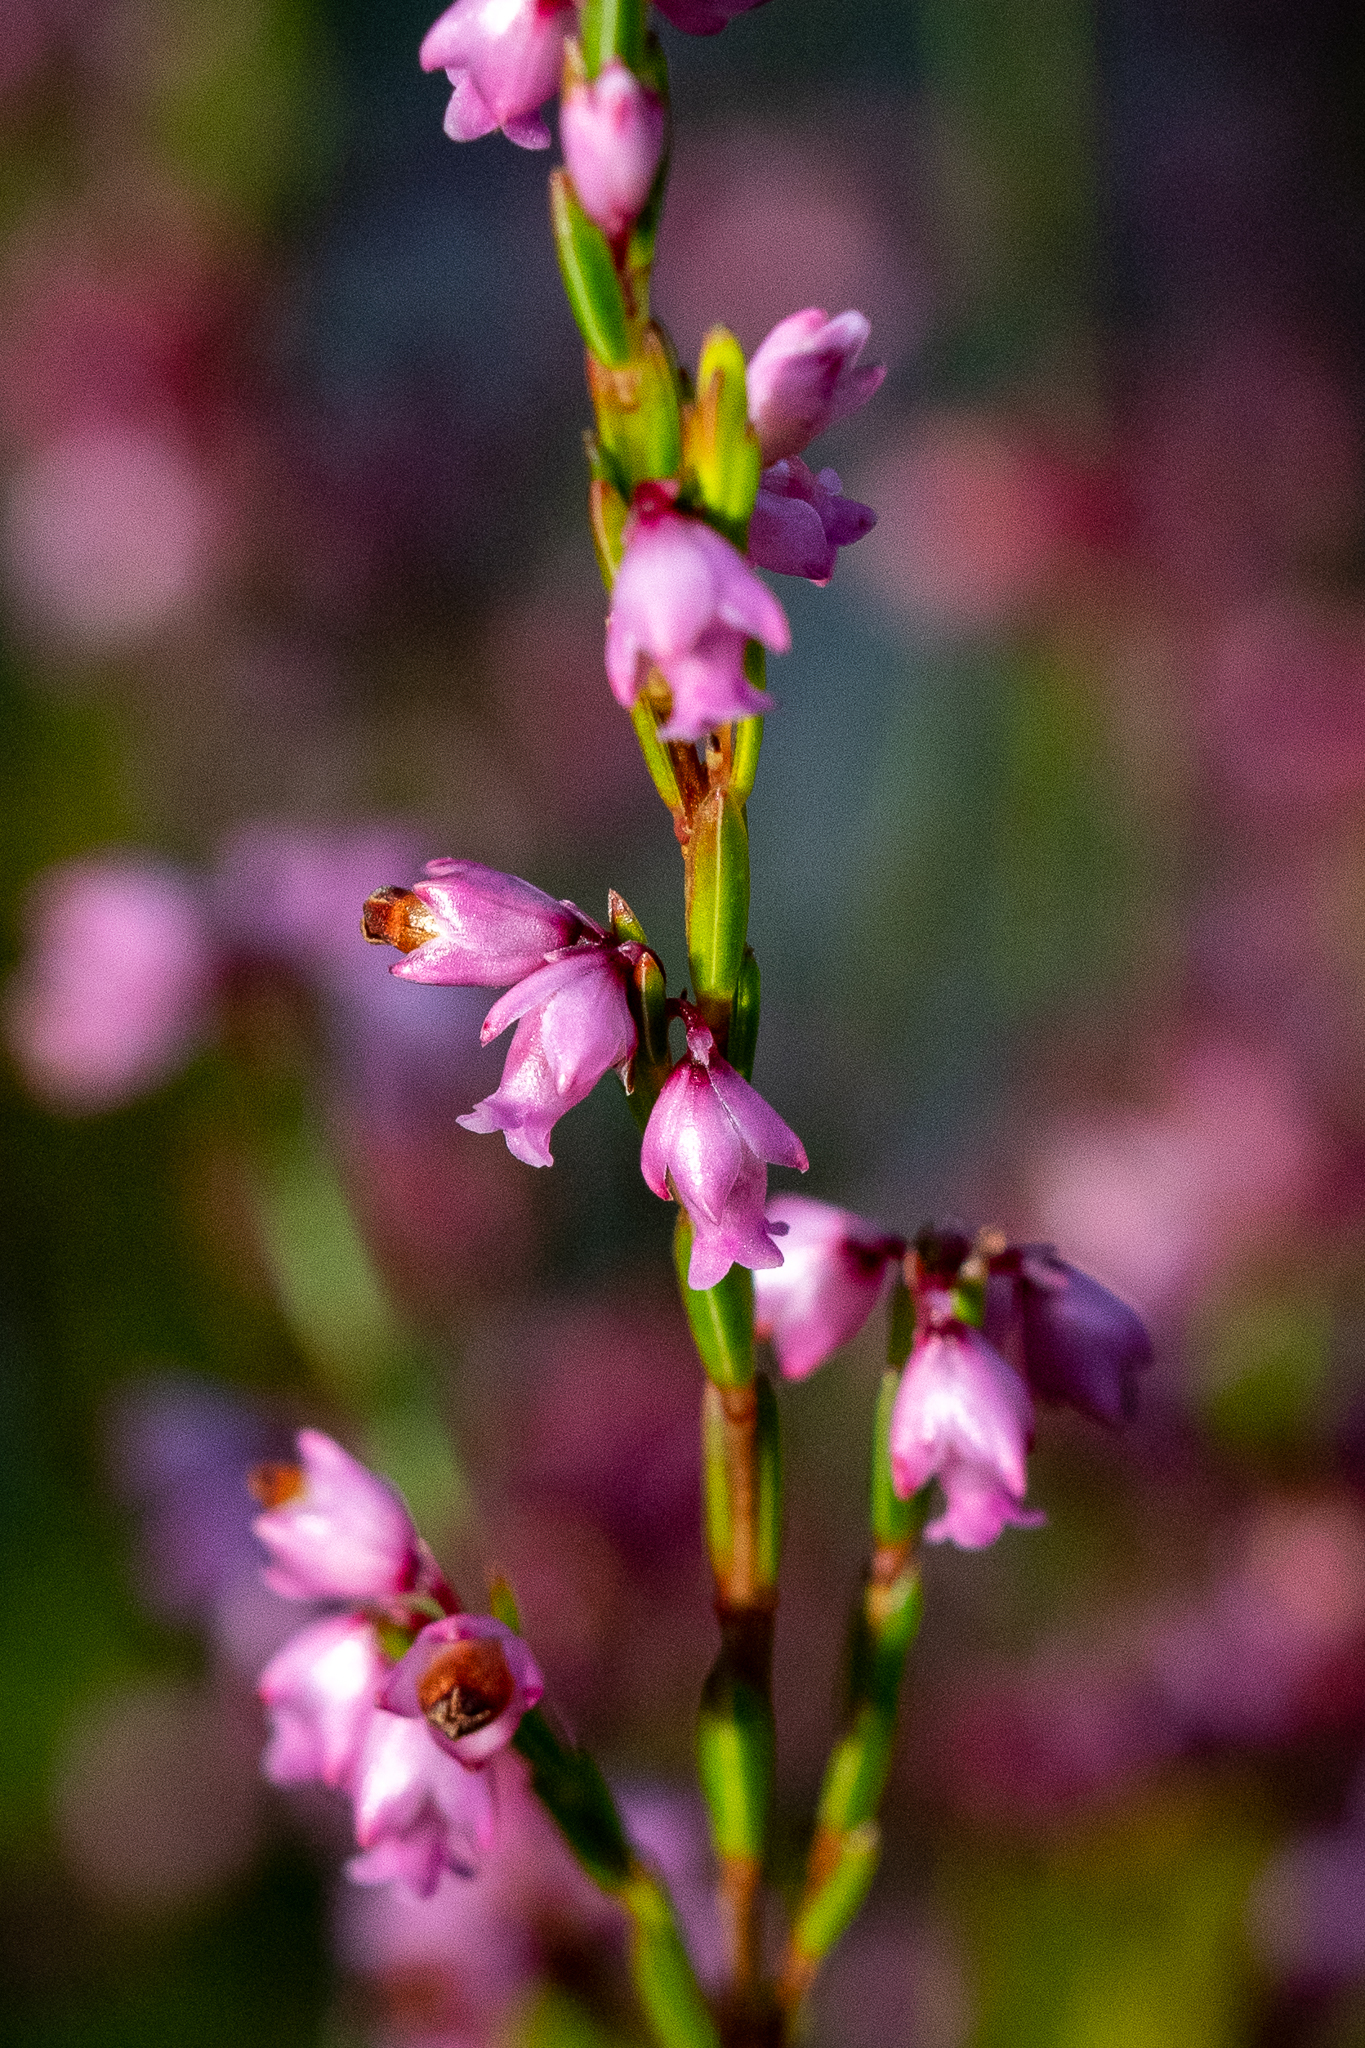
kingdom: Plantae
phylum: Tracheophyta
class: Magnoliopsida
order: Ericales
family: Ericaceae
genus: Erica
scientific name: Erica tenuifolia
